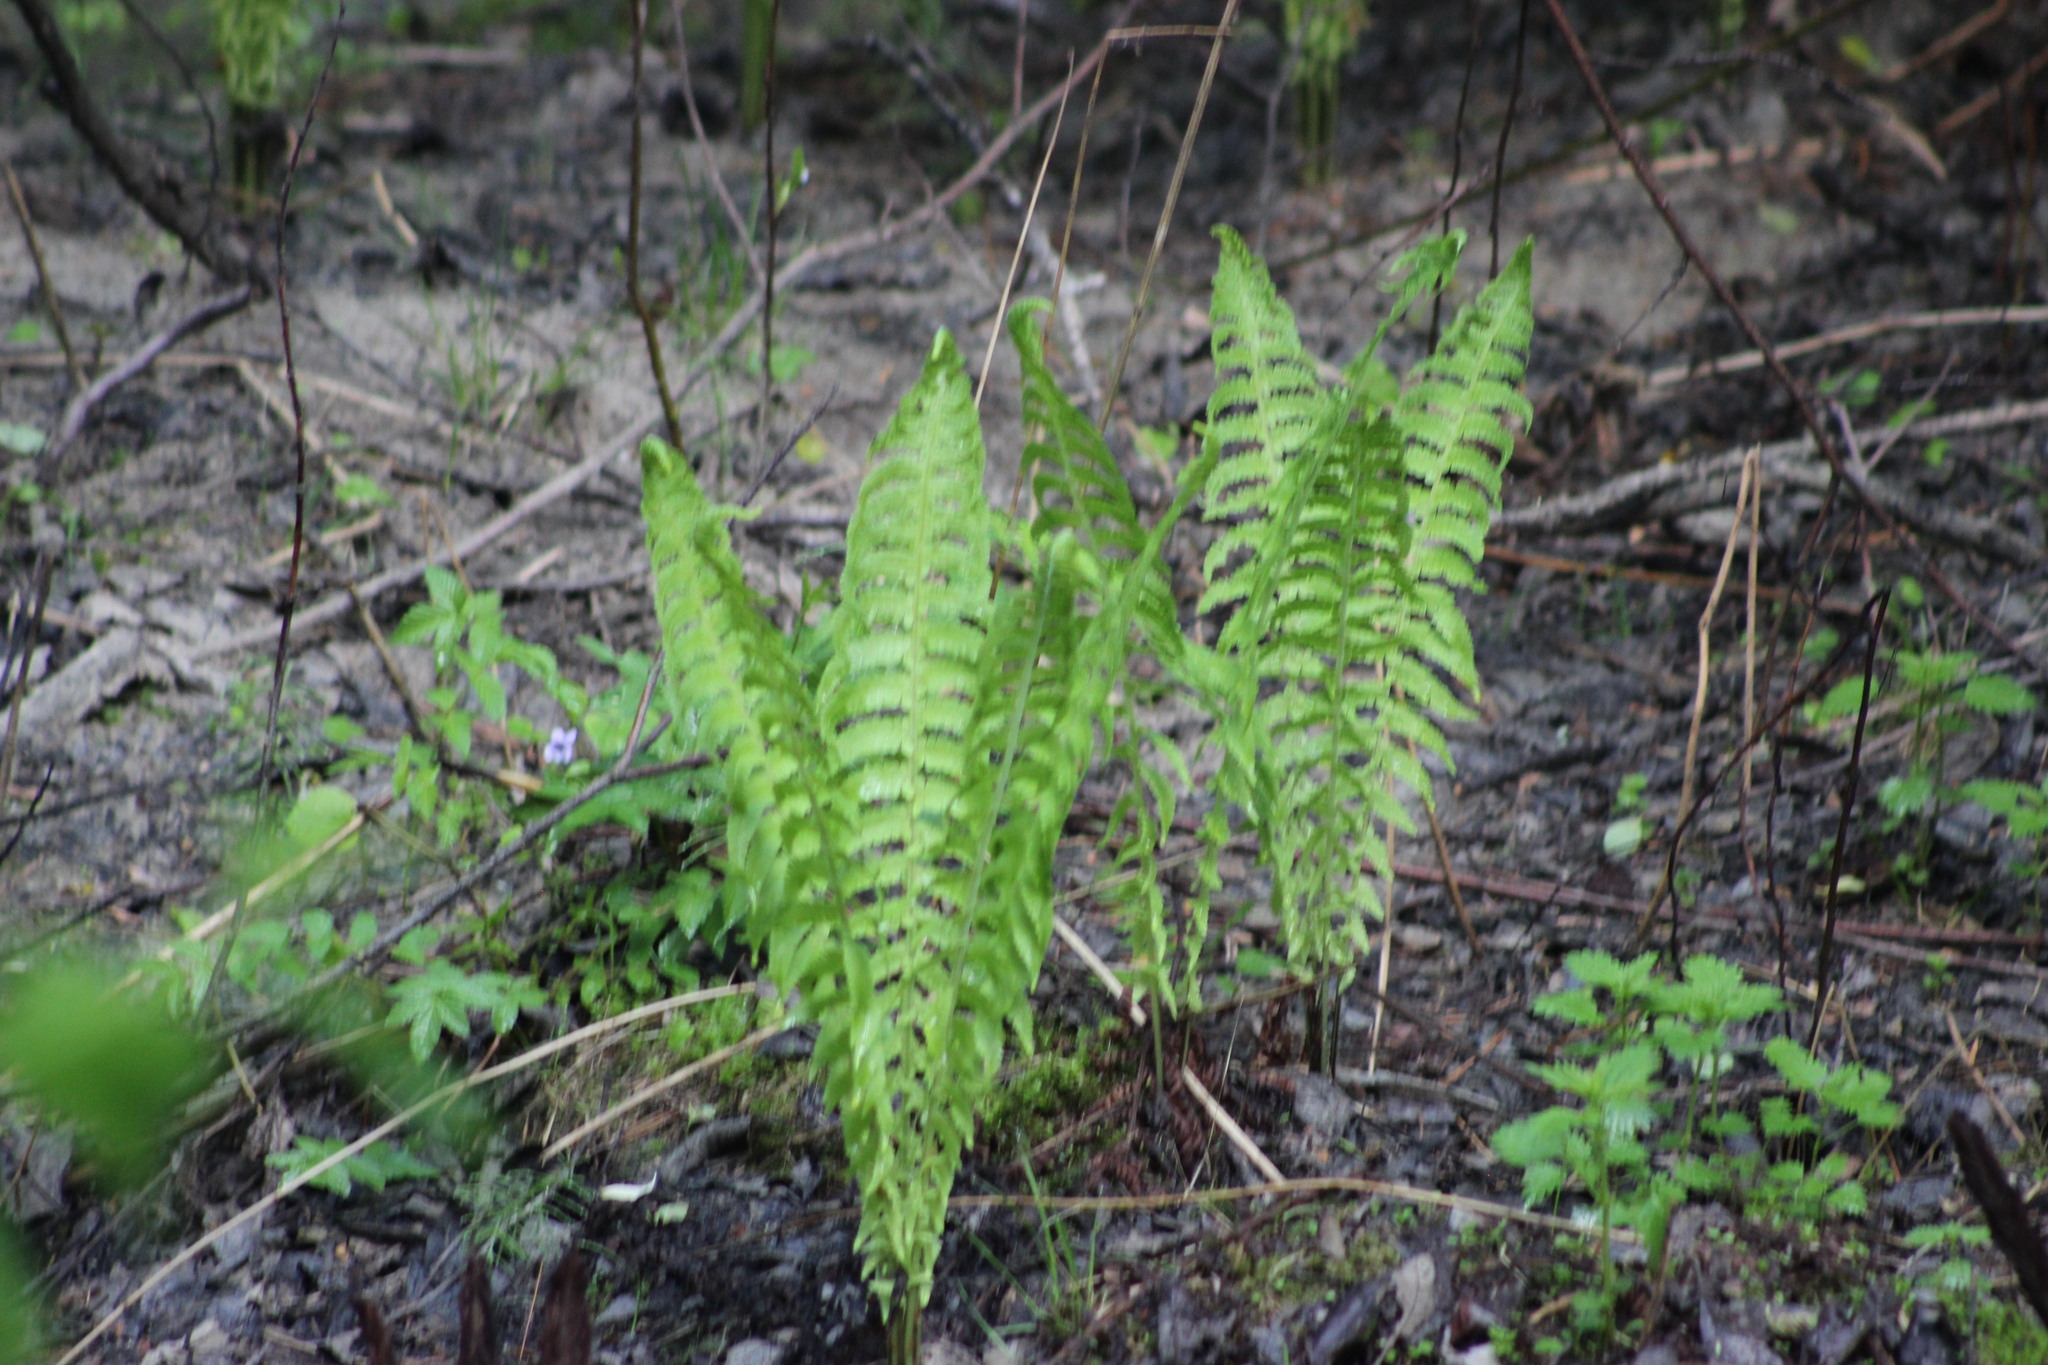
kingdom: Plantae
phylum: Tracheophyta
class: Polypodiopsida
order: Polypodiales
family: Onocleaceae
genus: Matteuccia
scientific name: Matteuccia struthiopteris
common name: Ostrich fern
